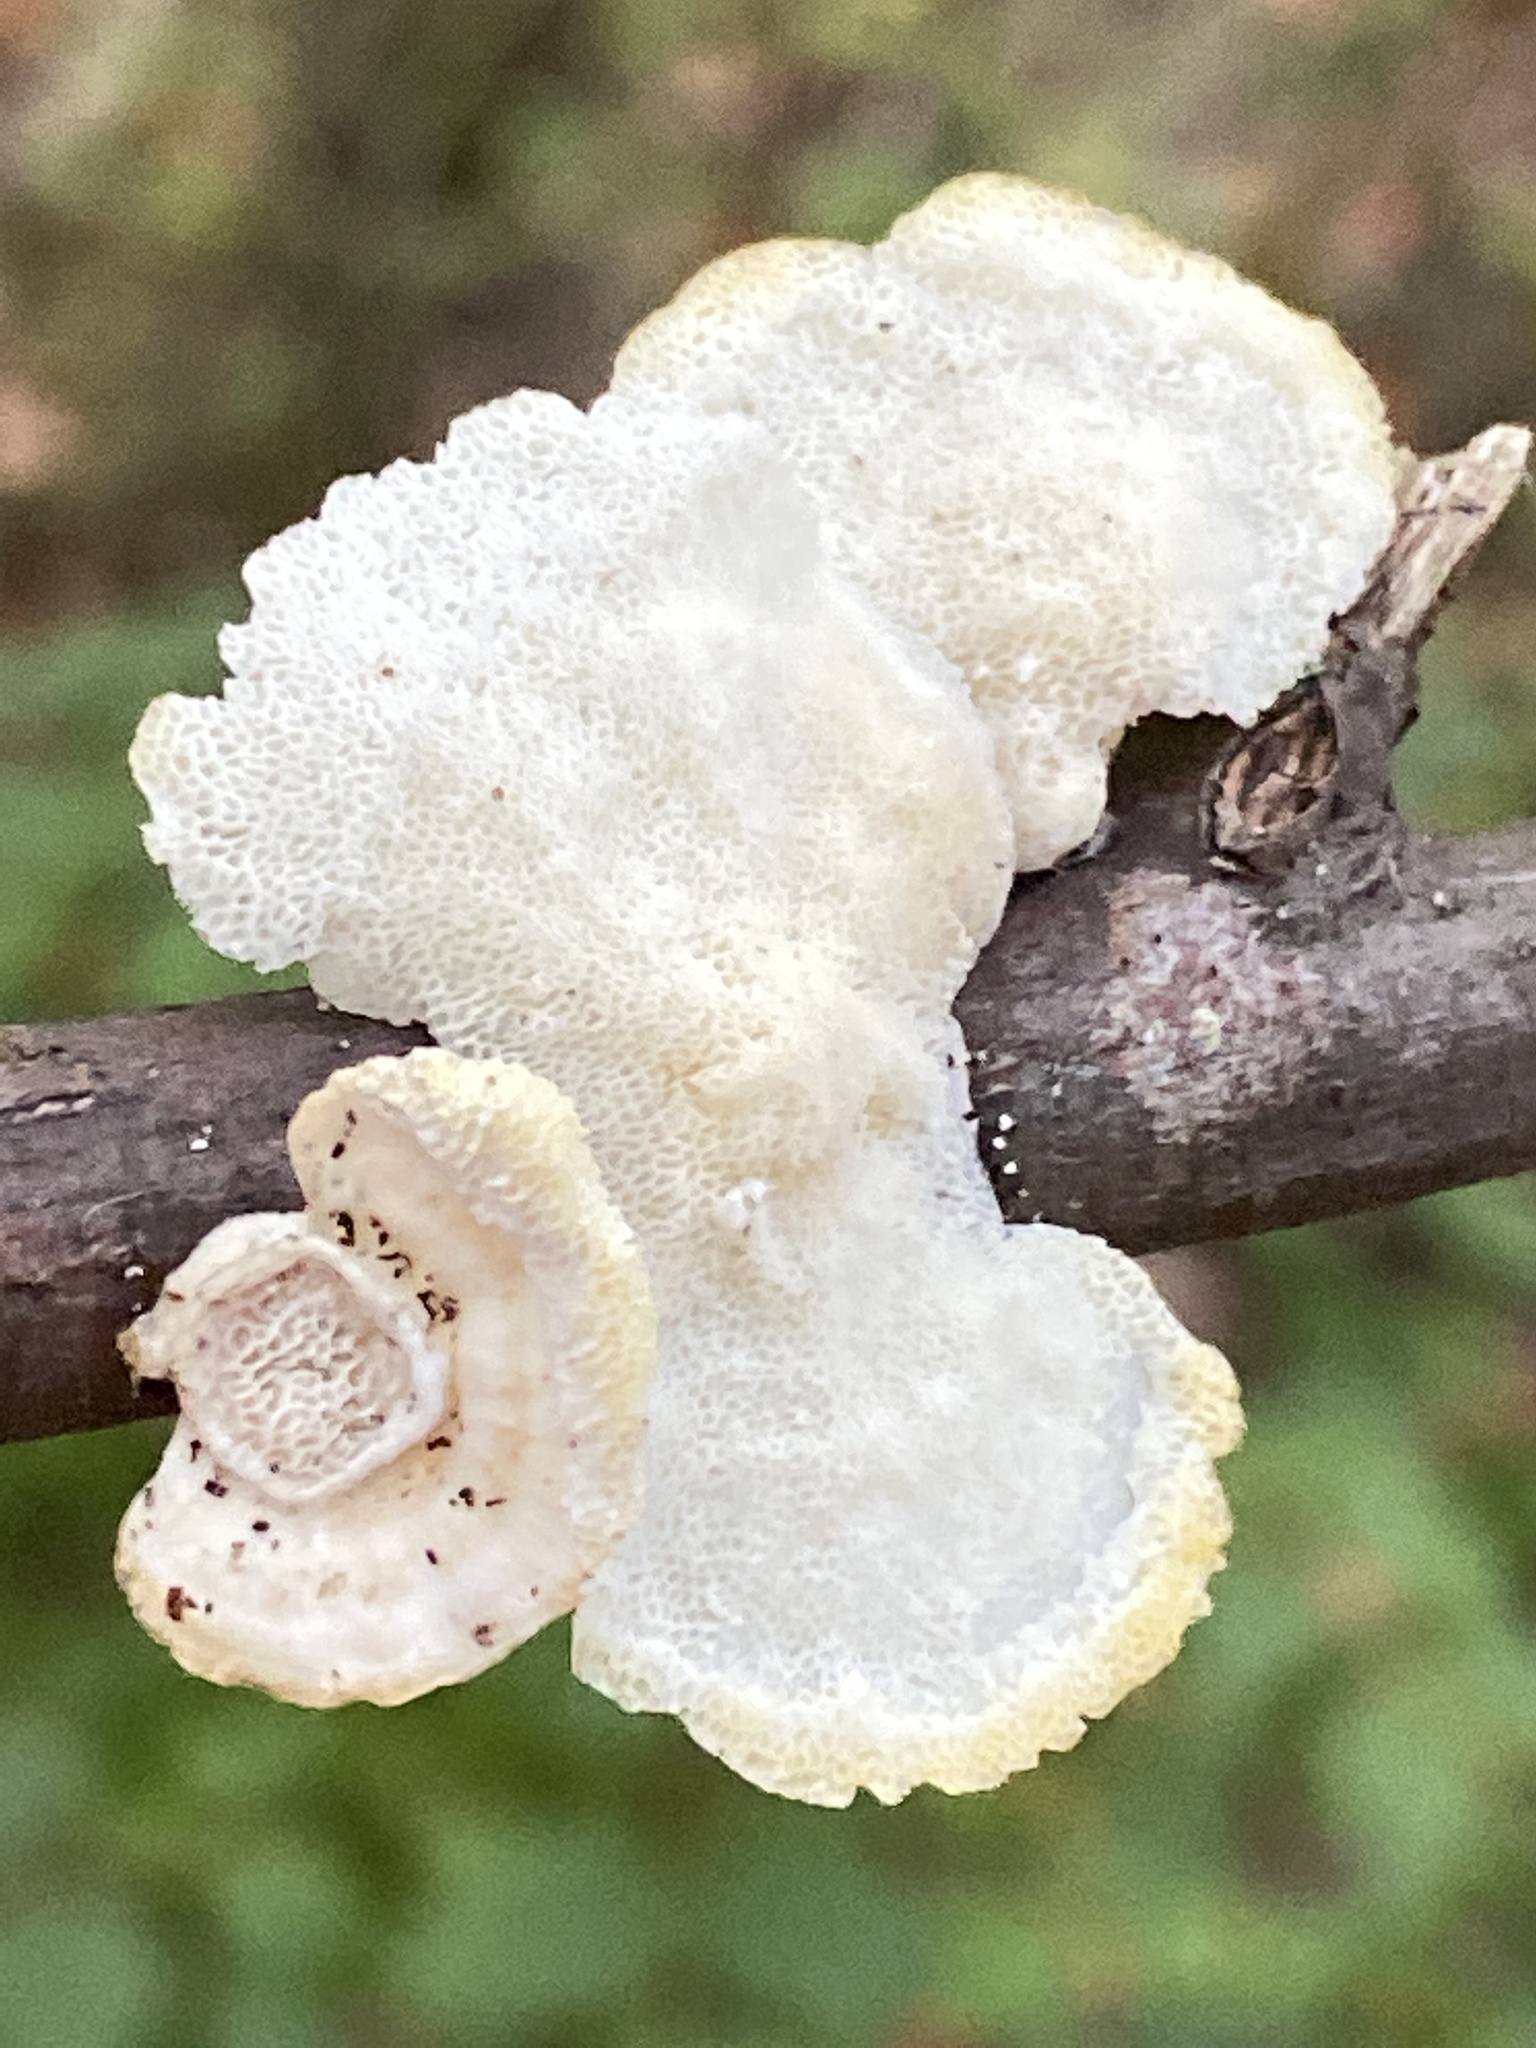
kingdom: Fungi
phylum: Basidiomycota
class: Agaricomycetes
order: Polyporales
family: Polyporaceae
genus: Poronidulus
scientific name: Poronidulus conchifer
